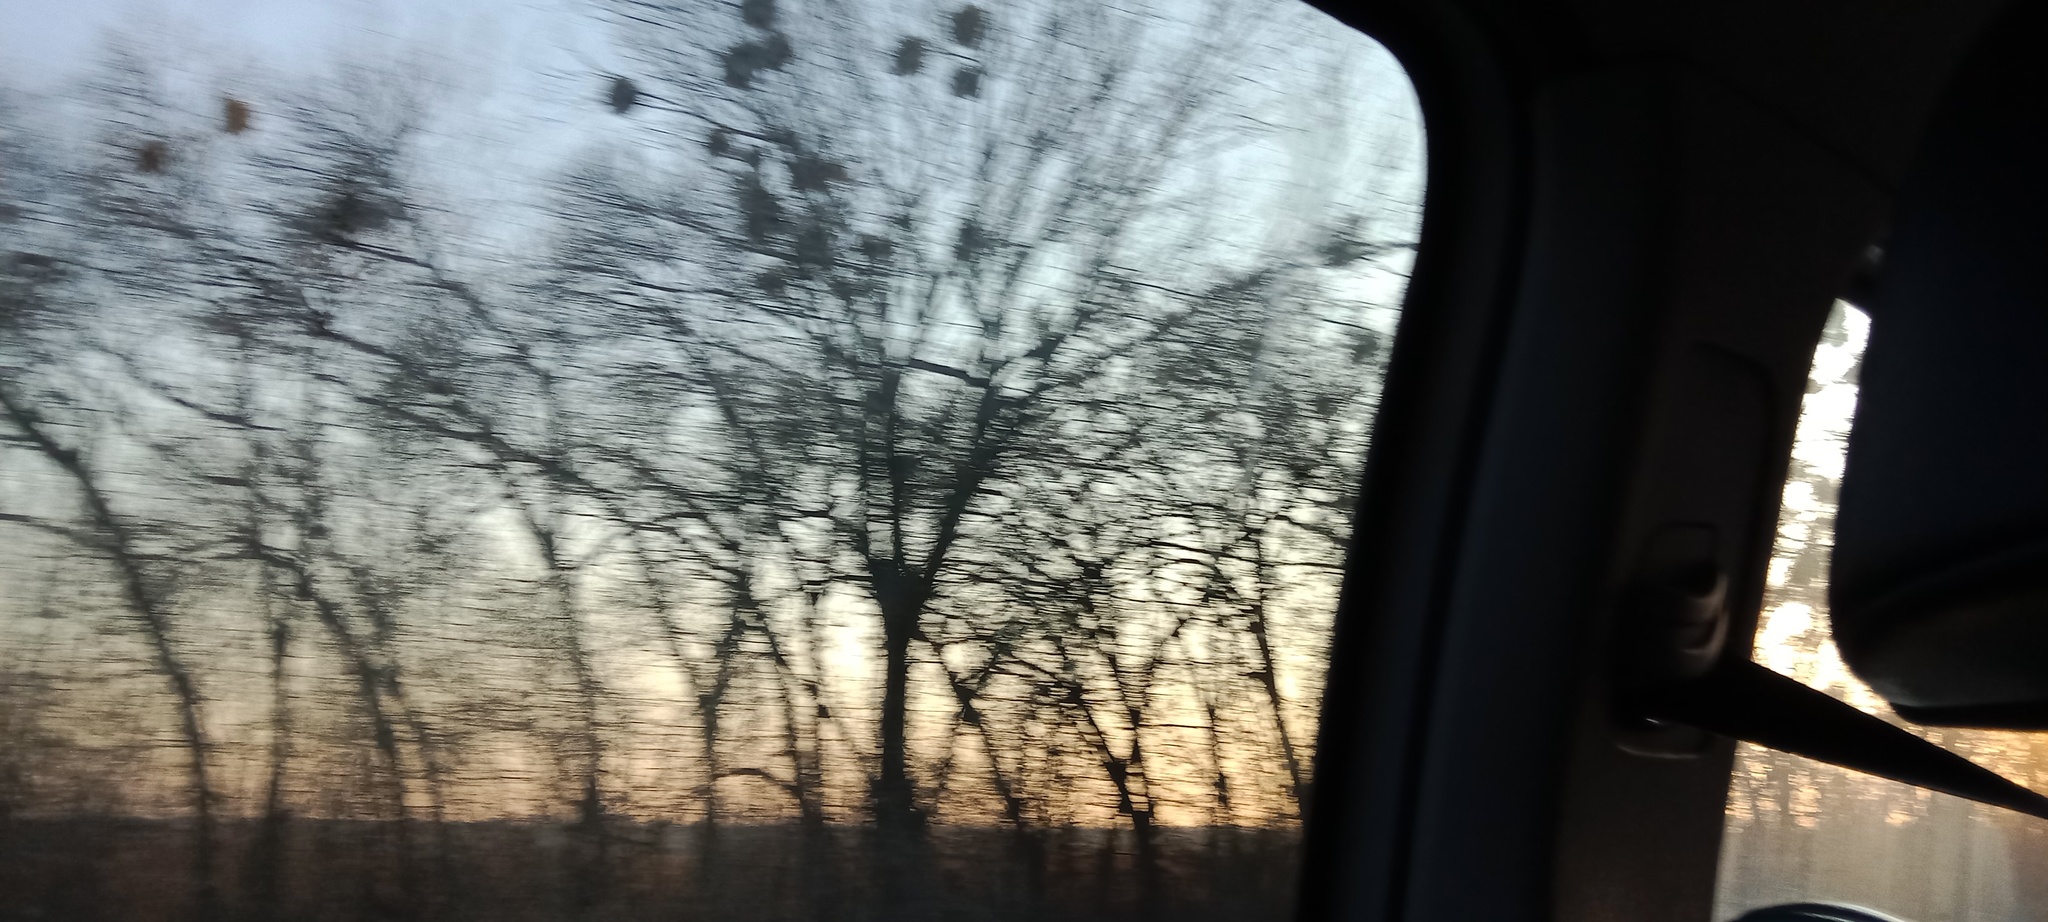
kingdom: Plantae
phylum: Tracheophyta
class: Magnoliopsida
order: Santalales
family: Viscaceae
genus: Viscum
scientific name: Viscum album
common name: Mistletoe
